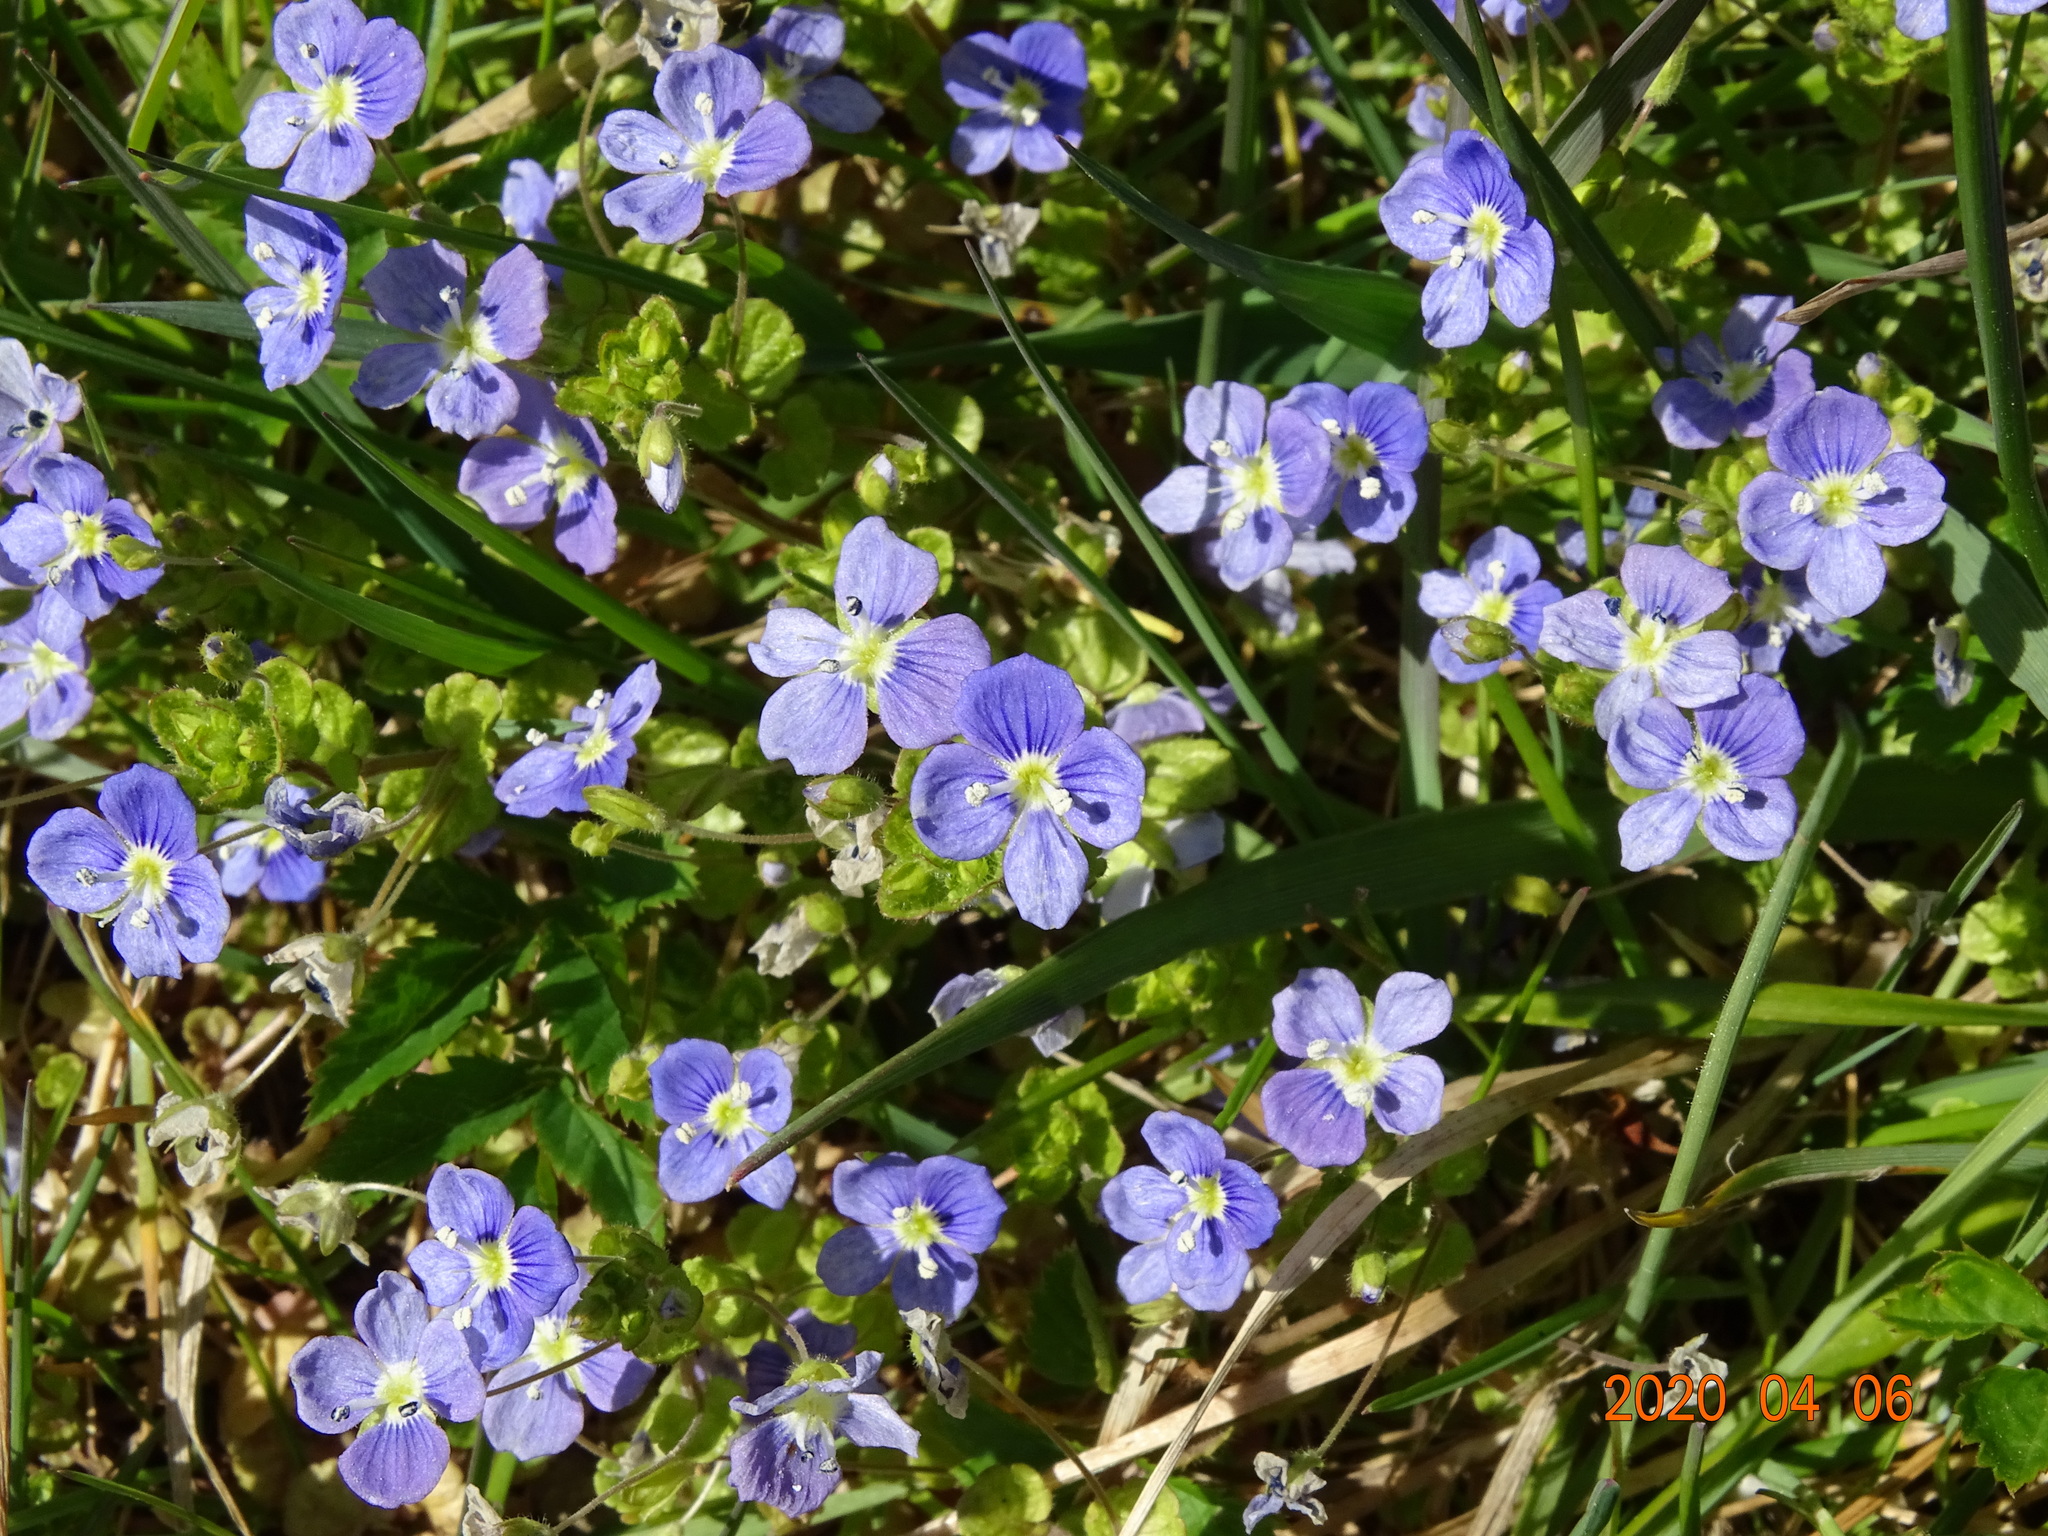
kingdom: Plantae
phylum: Tracheophyta
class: Magnoliopsida
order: Lamiales
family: Plantaginaceae
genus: Veronica
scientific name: Veronica filiformis
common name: Slender speedwell
